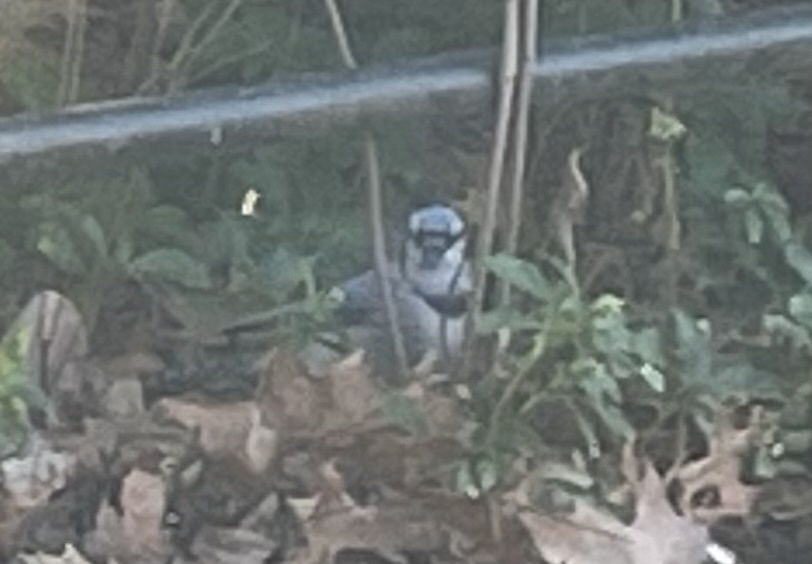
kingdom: Animalia
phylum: Chordata
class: Aves
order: Passeriformes
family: Corvidae
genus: Cyanocitta
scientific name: Cyanocitta cristata
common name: Blue jay
